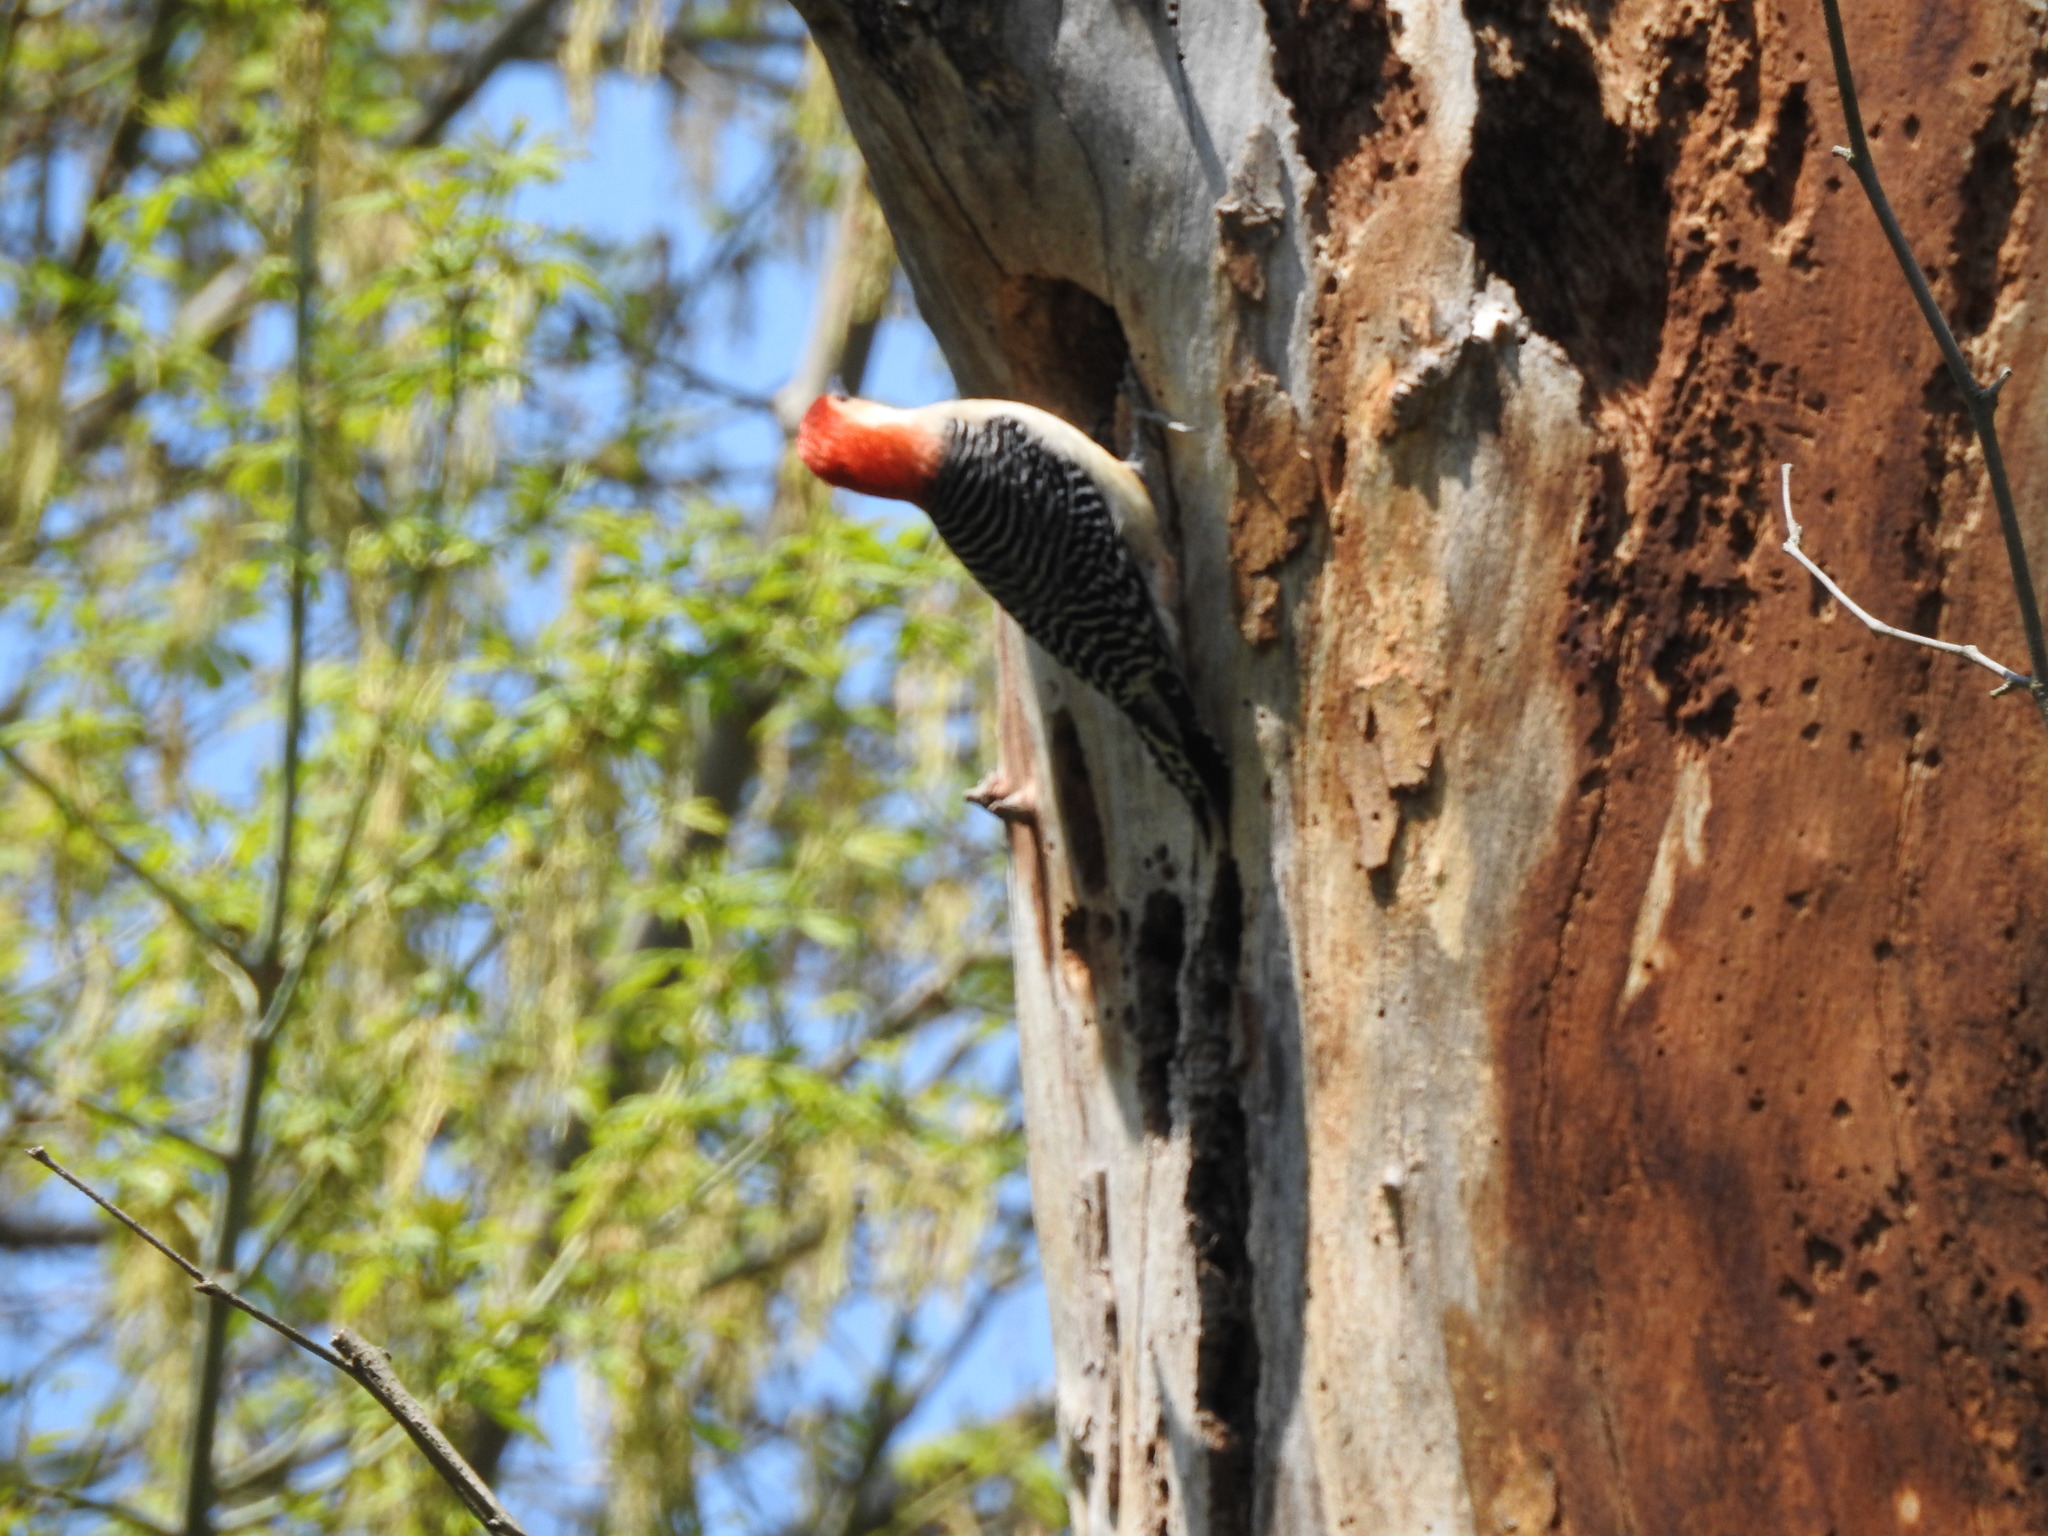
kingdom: Animalia
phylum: Chordata
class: Aves
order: Piciformes
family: Picidae
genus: Melanerpes
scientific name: Melanerpes carolinus
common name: Red-bellied woodpecker
